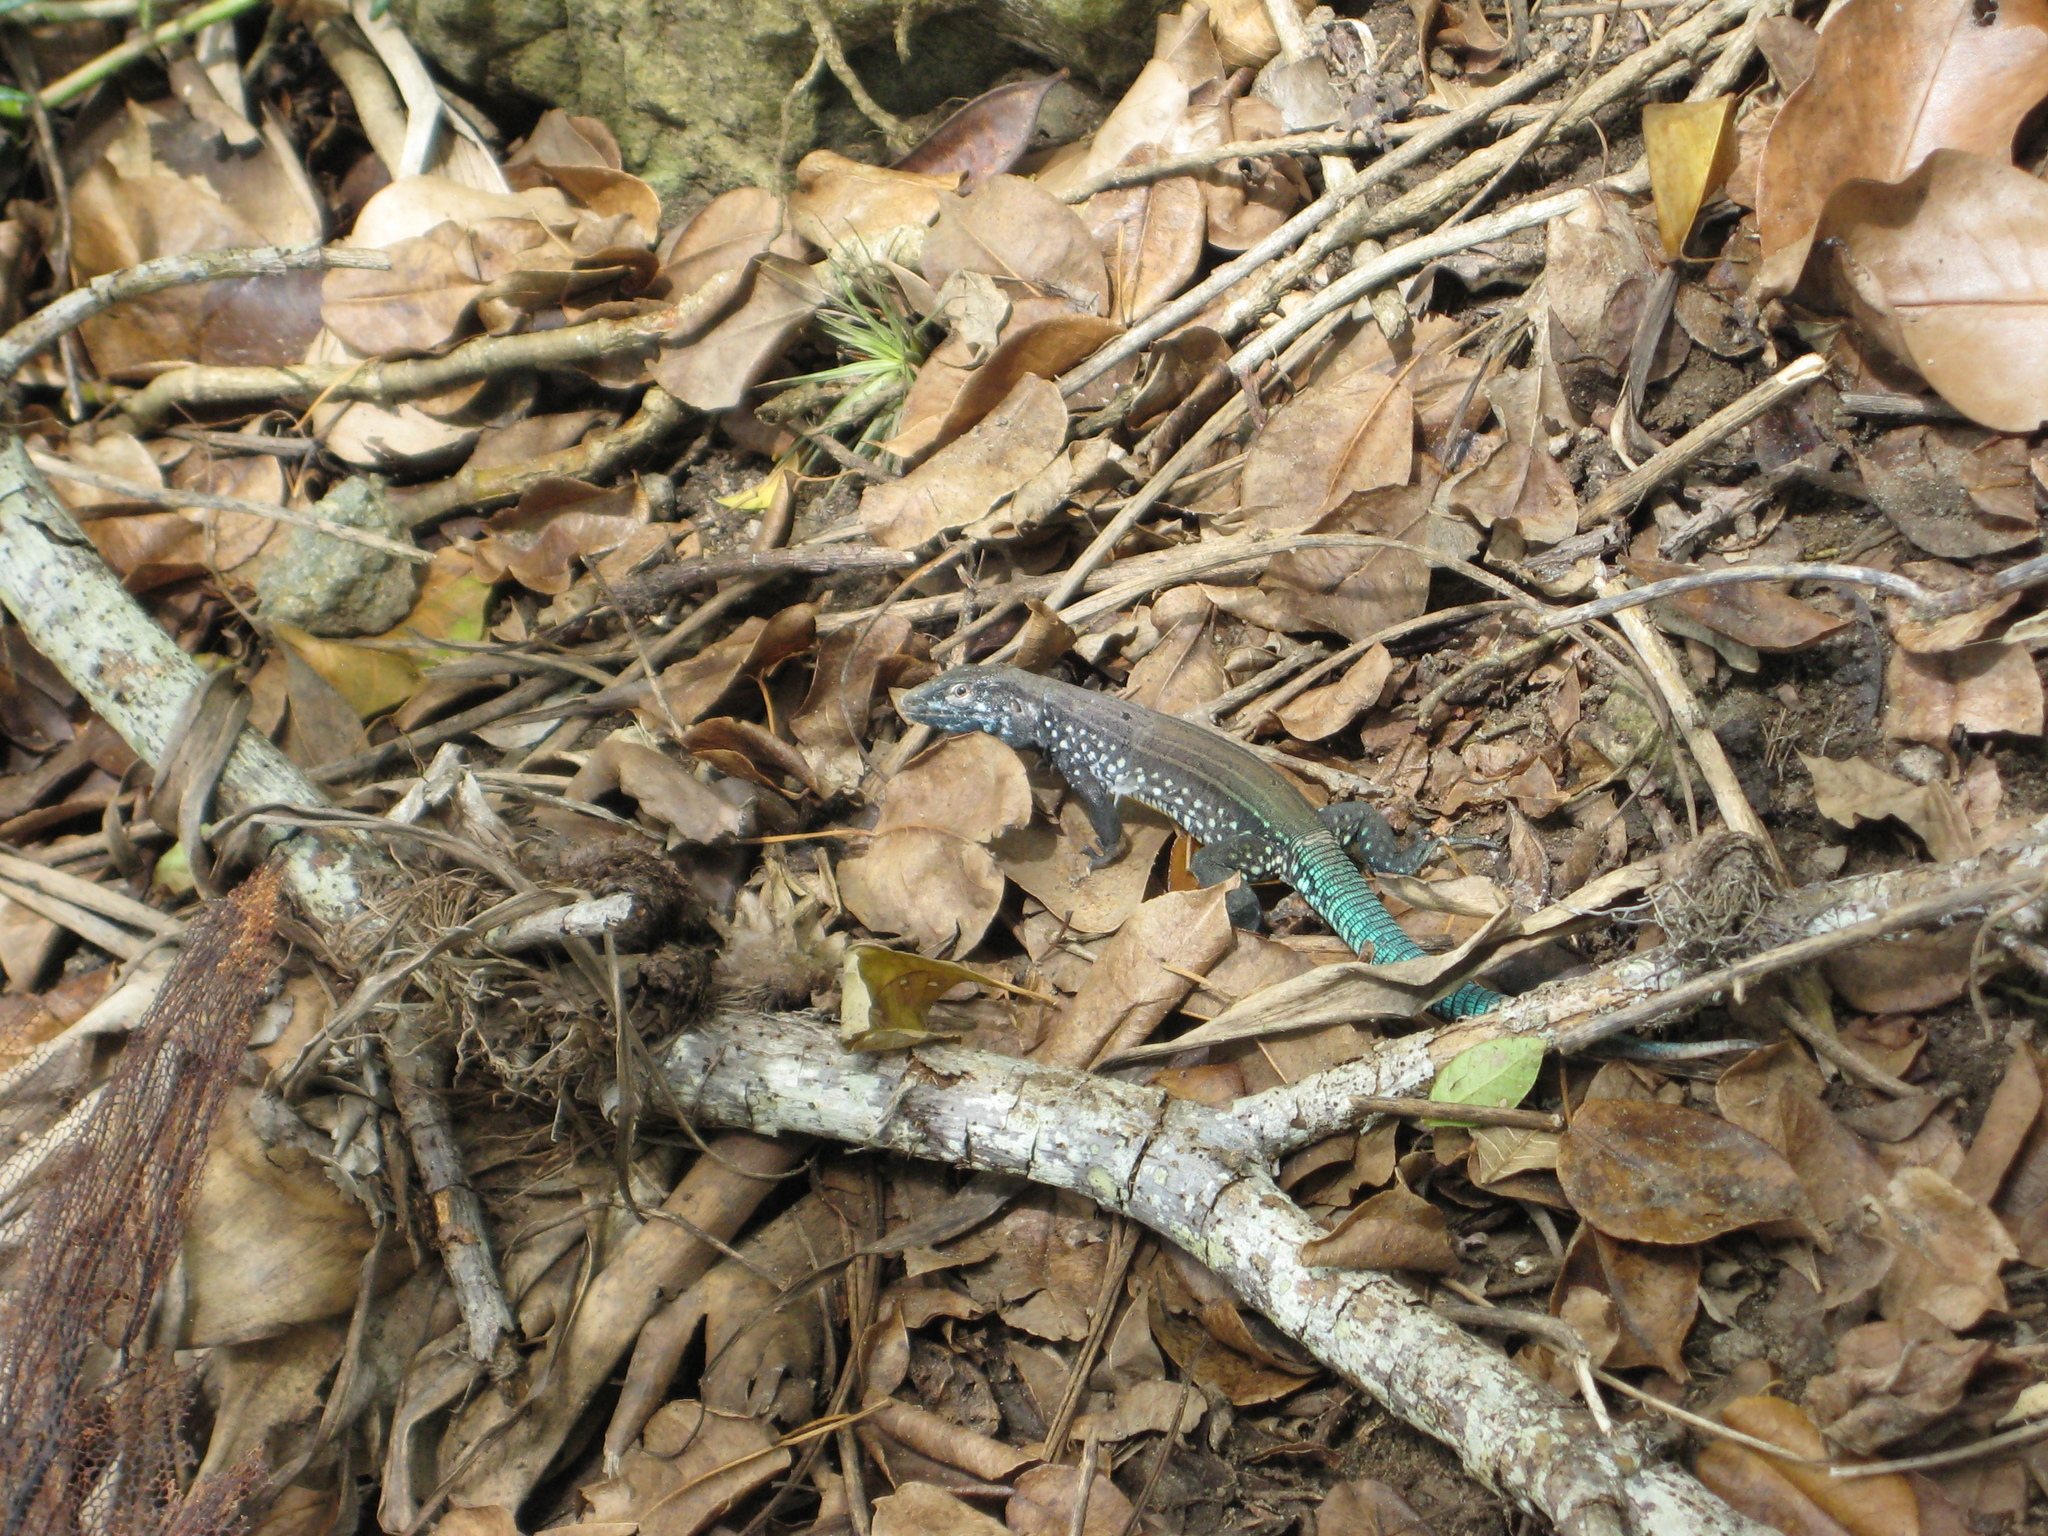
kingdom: Animalia
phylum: Chordata
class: Squamata
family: Teiidae
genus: Cnemidophorus
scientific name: Cnemidophorus vanzoi
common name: Saint lucian whiptail
